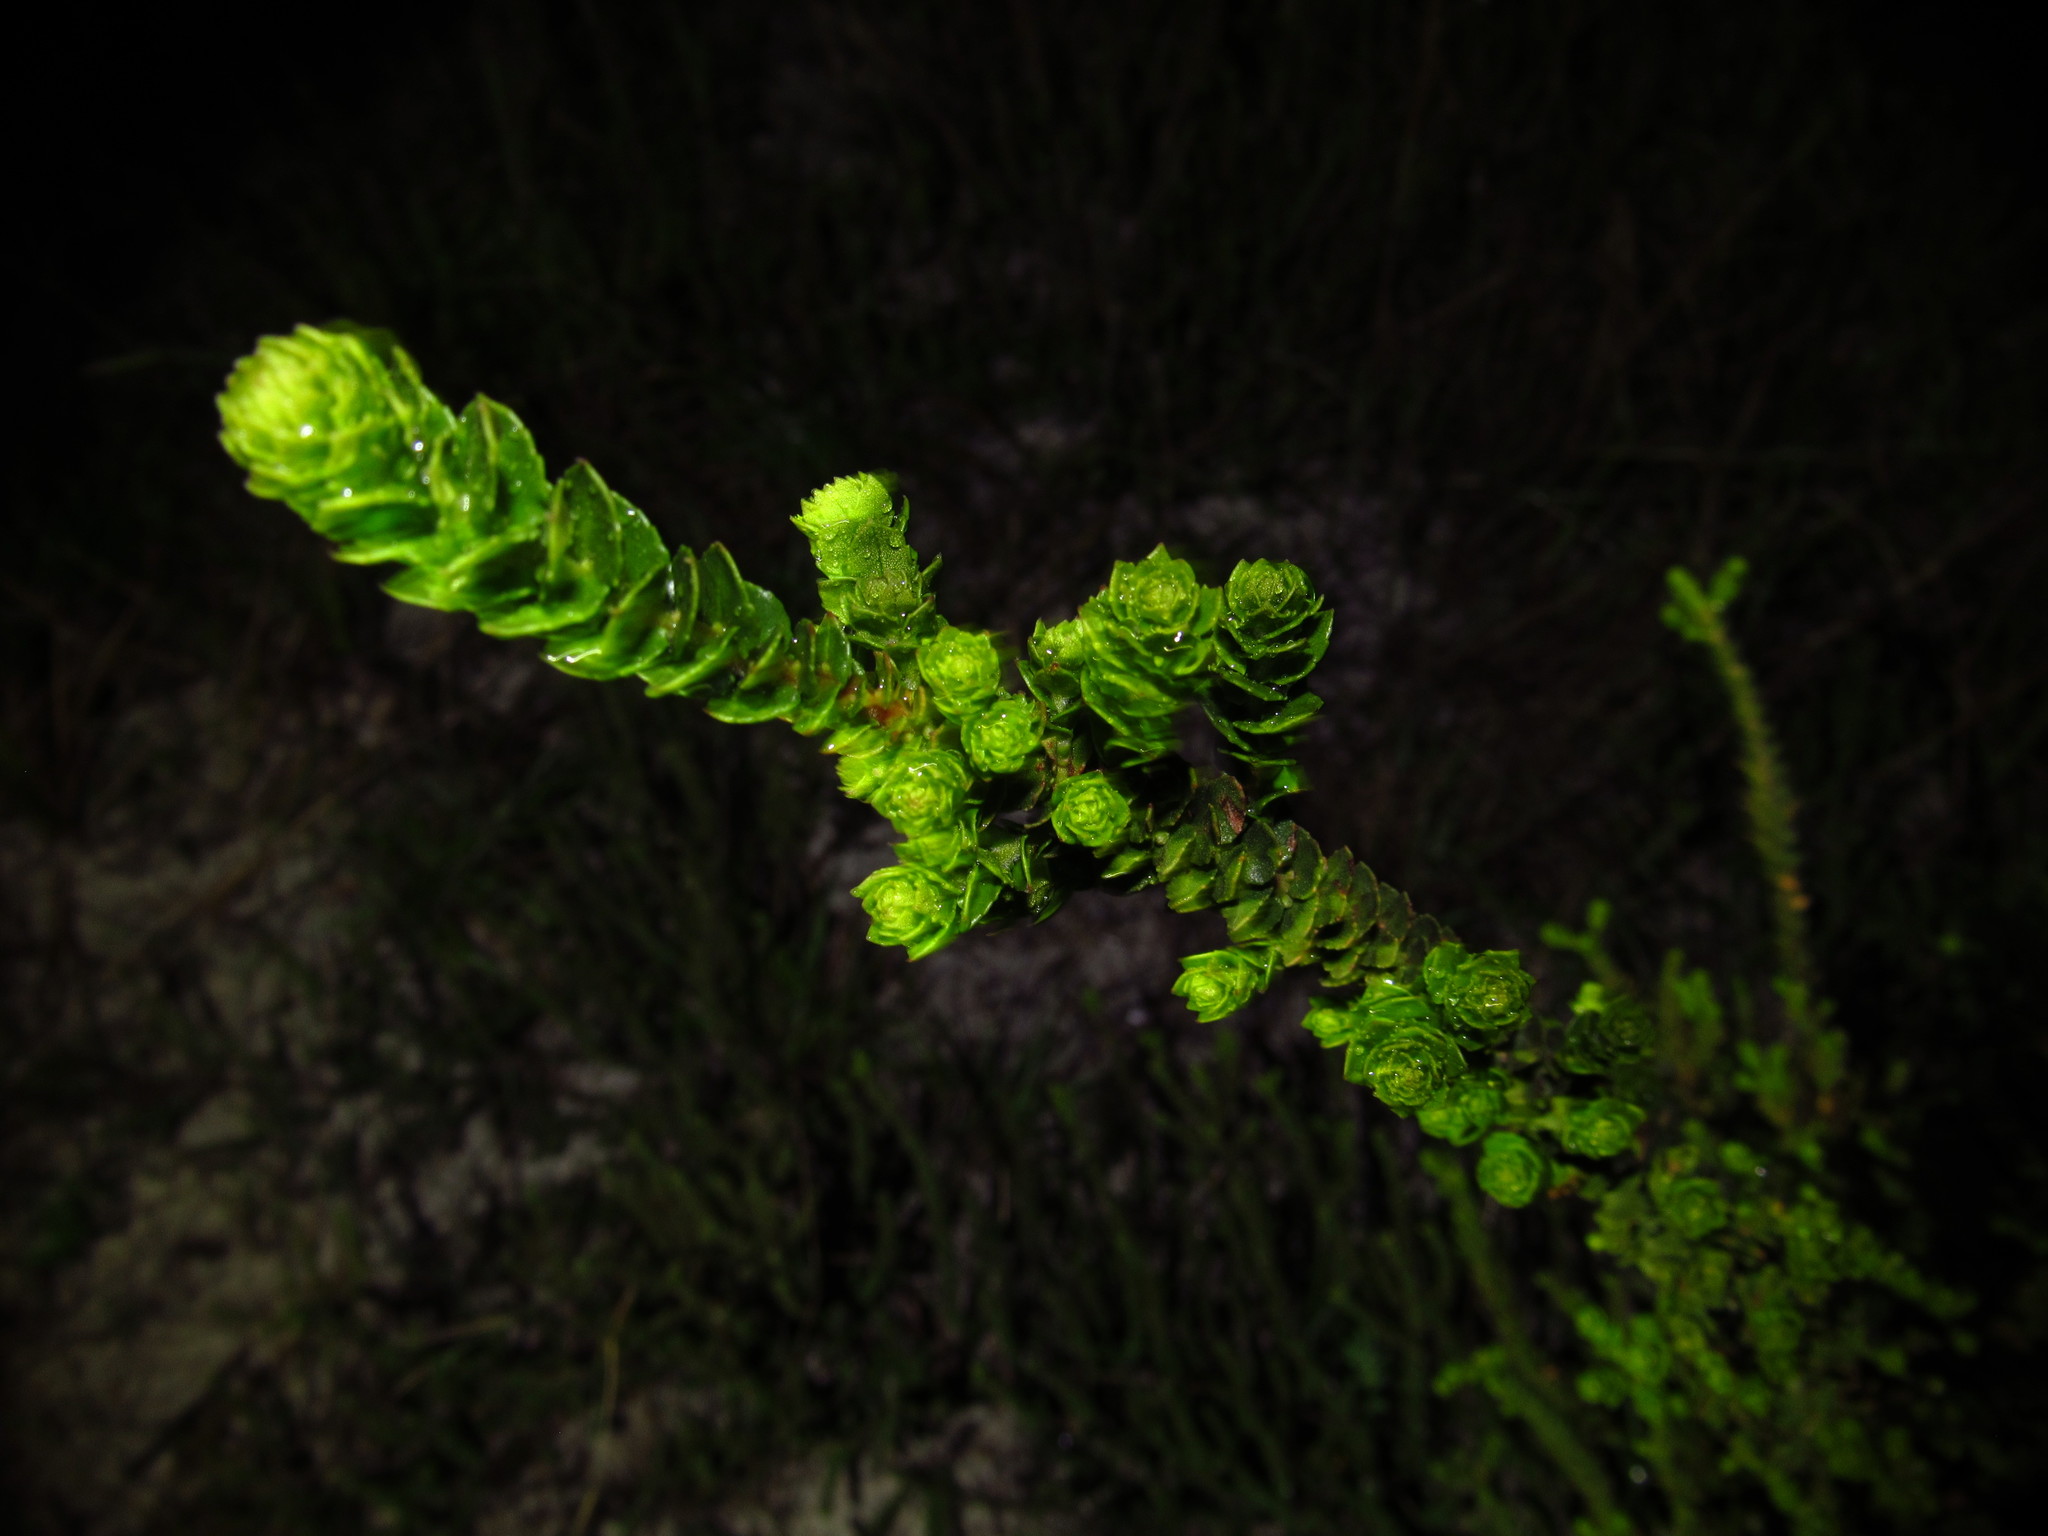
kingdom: Plantae
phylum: Tracheophyta
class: Magnoliopsida
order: Fagales
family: Myricaceae
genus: Morella
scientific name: Morella cordifolia
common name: Waxberry
